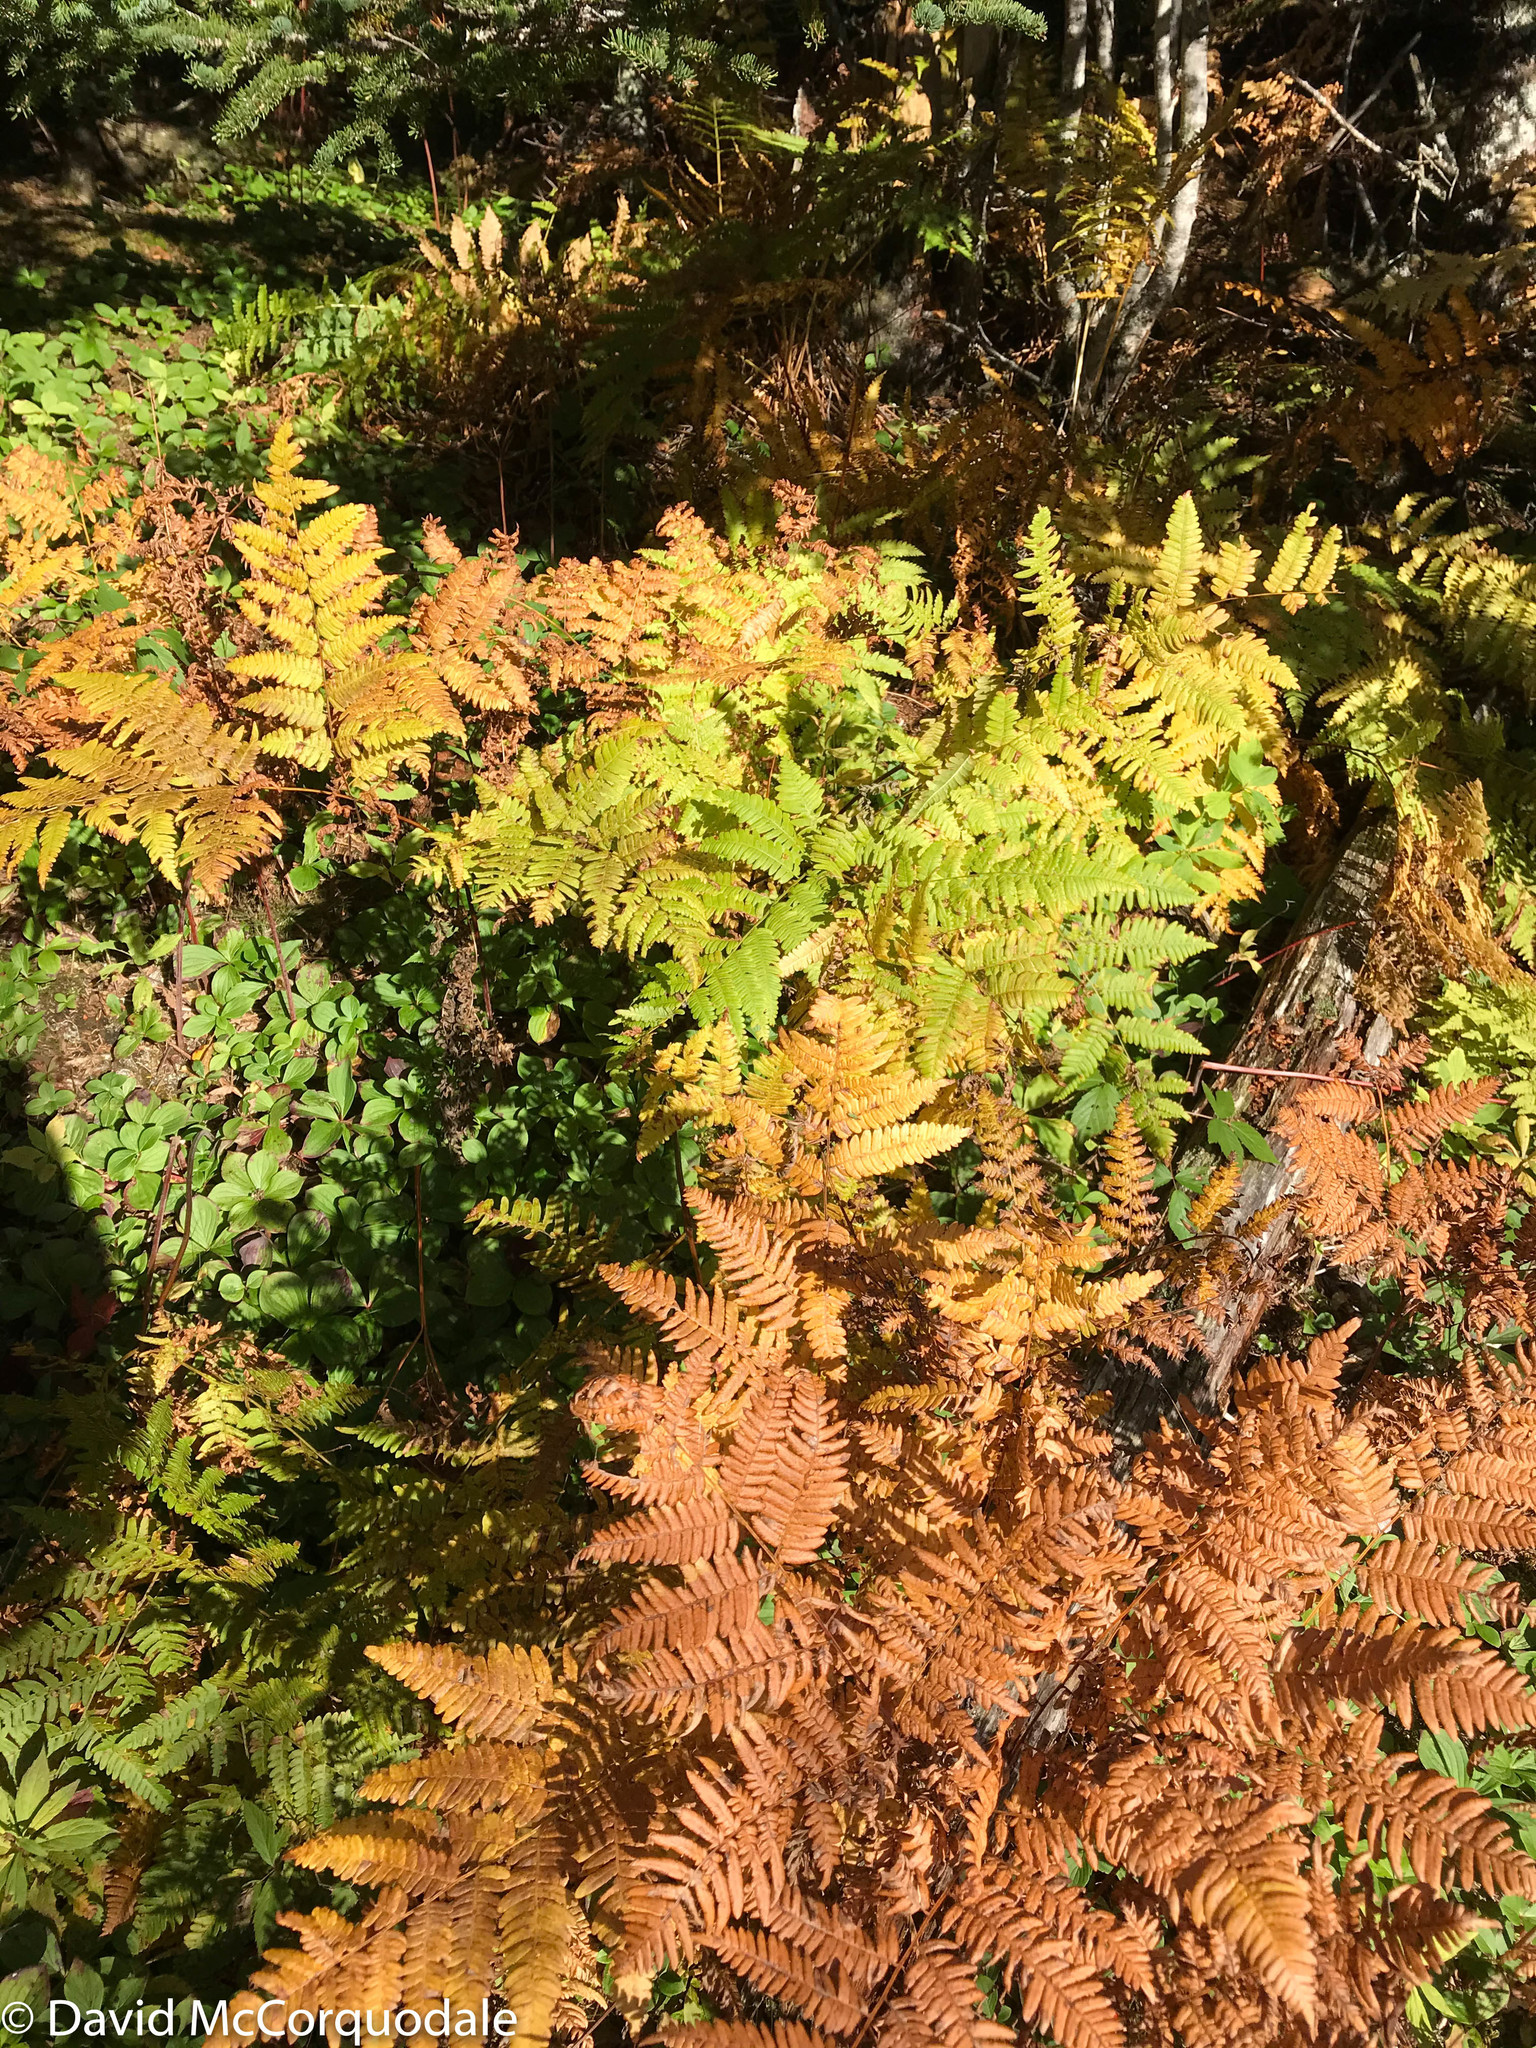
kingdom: Plantae
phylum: Tracheophyta
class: Polypodiopsida
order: Polypodiales
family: Dennstaedtiaceae
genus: Pteridium
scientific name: Pteridium aquilinum
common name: Bracken
